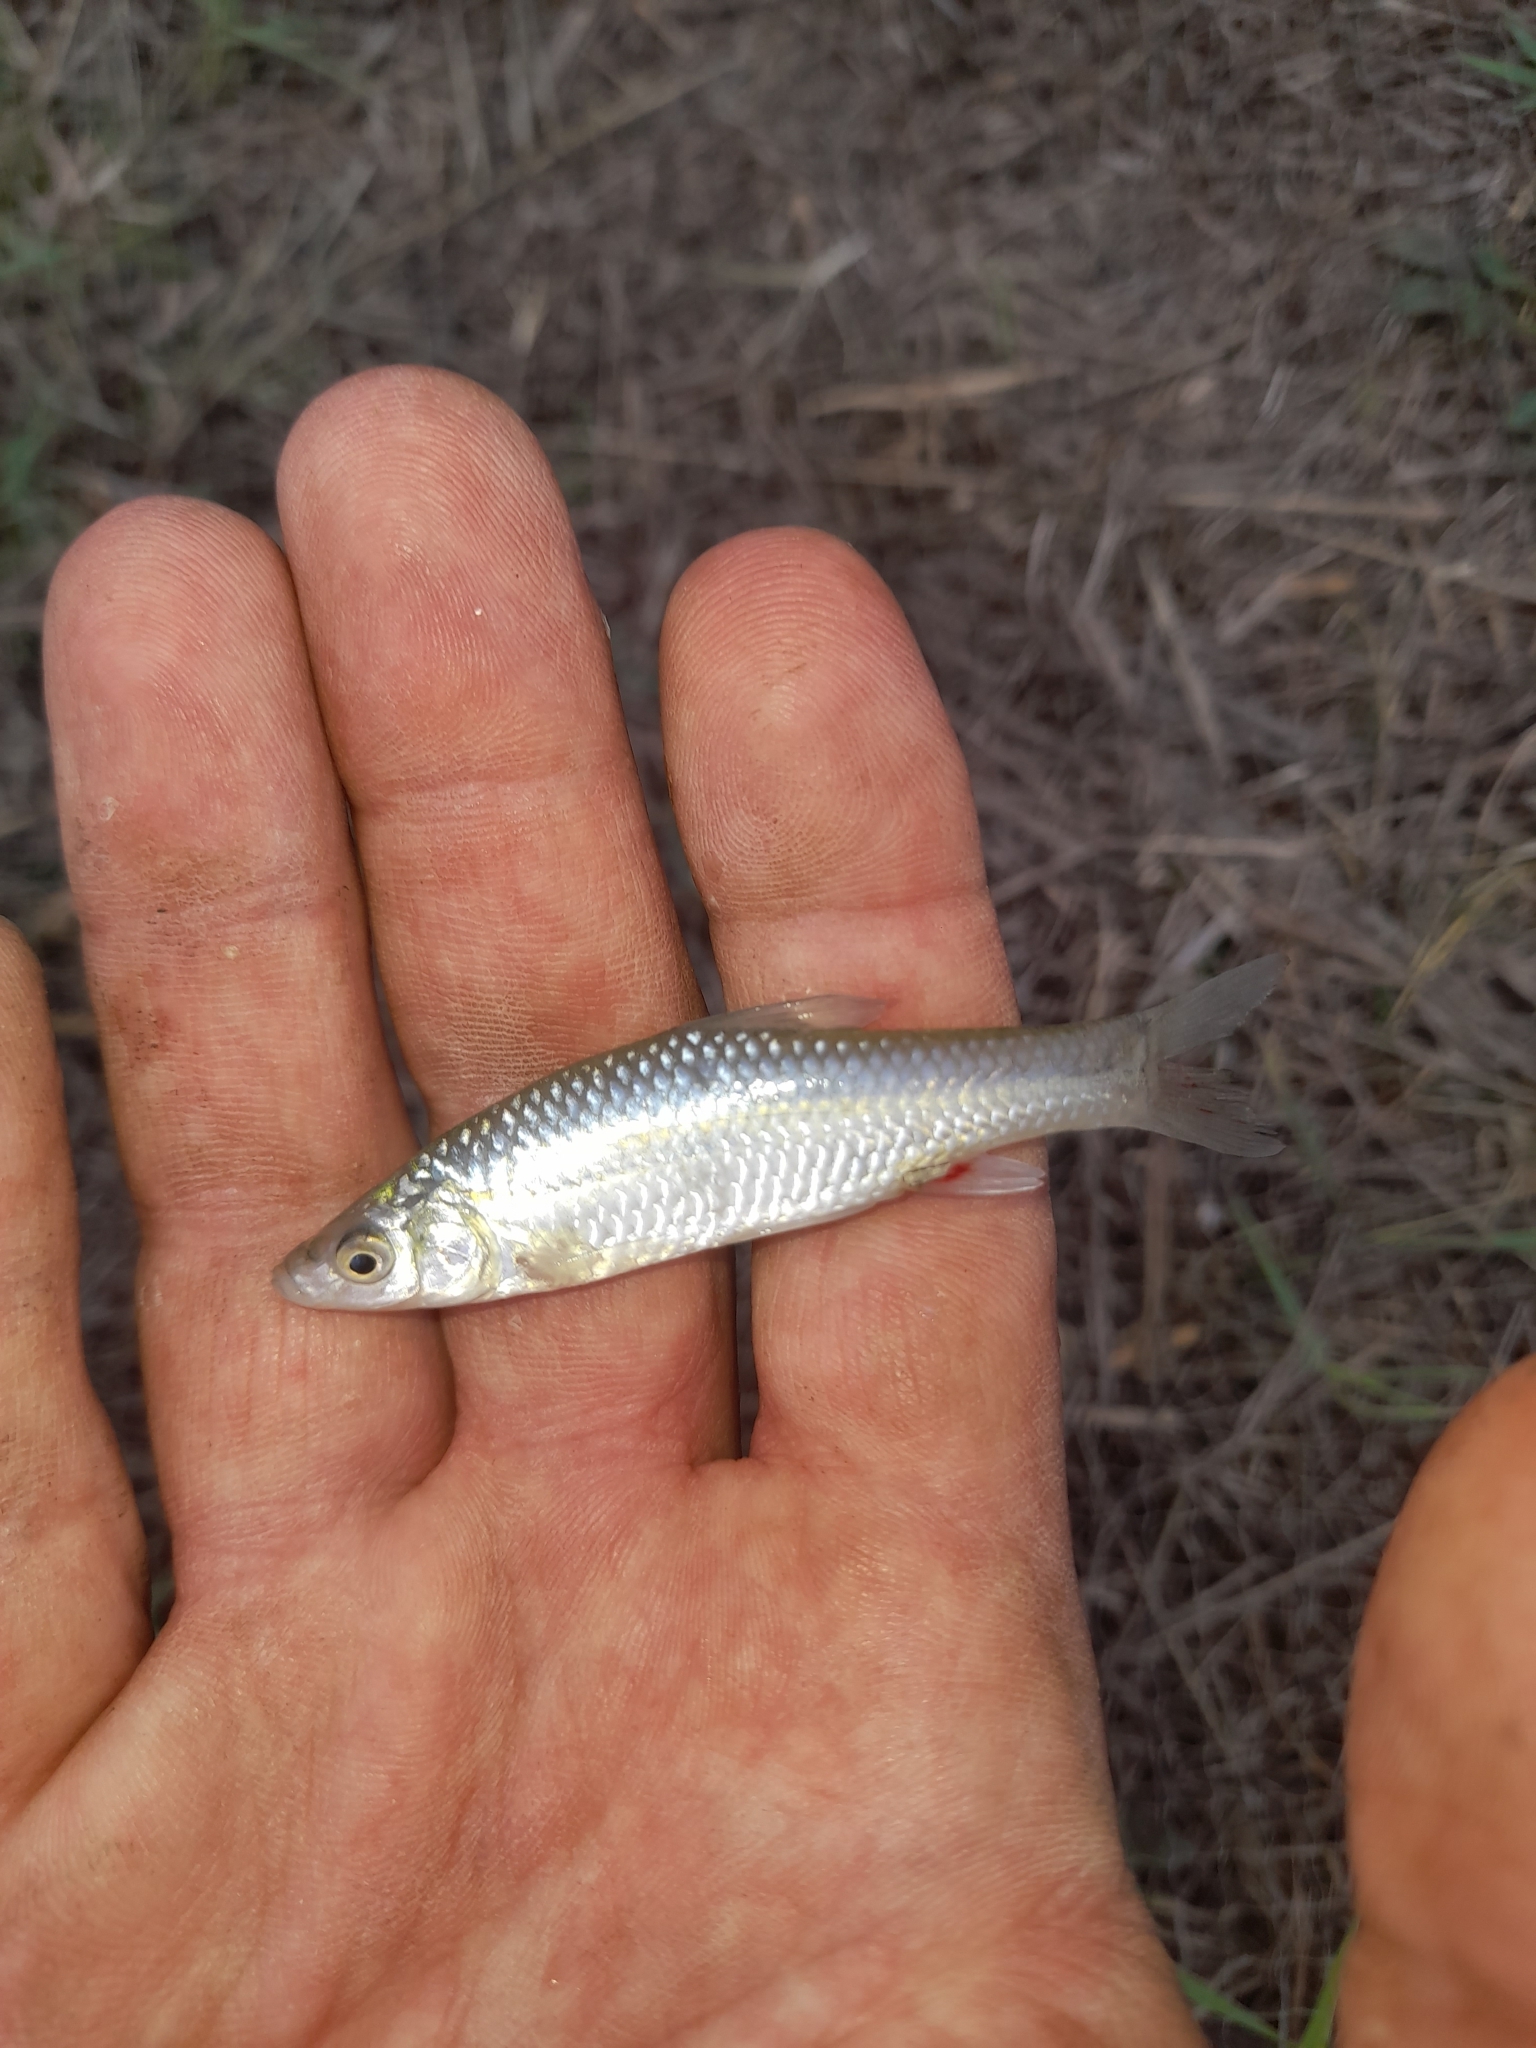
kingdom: Animalia
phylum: Chordata
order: Cypriniformes
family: Cyprinidae
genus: Pseudorasbora
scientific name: Pseudorasbora parva
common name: Topmouth gudgeon
